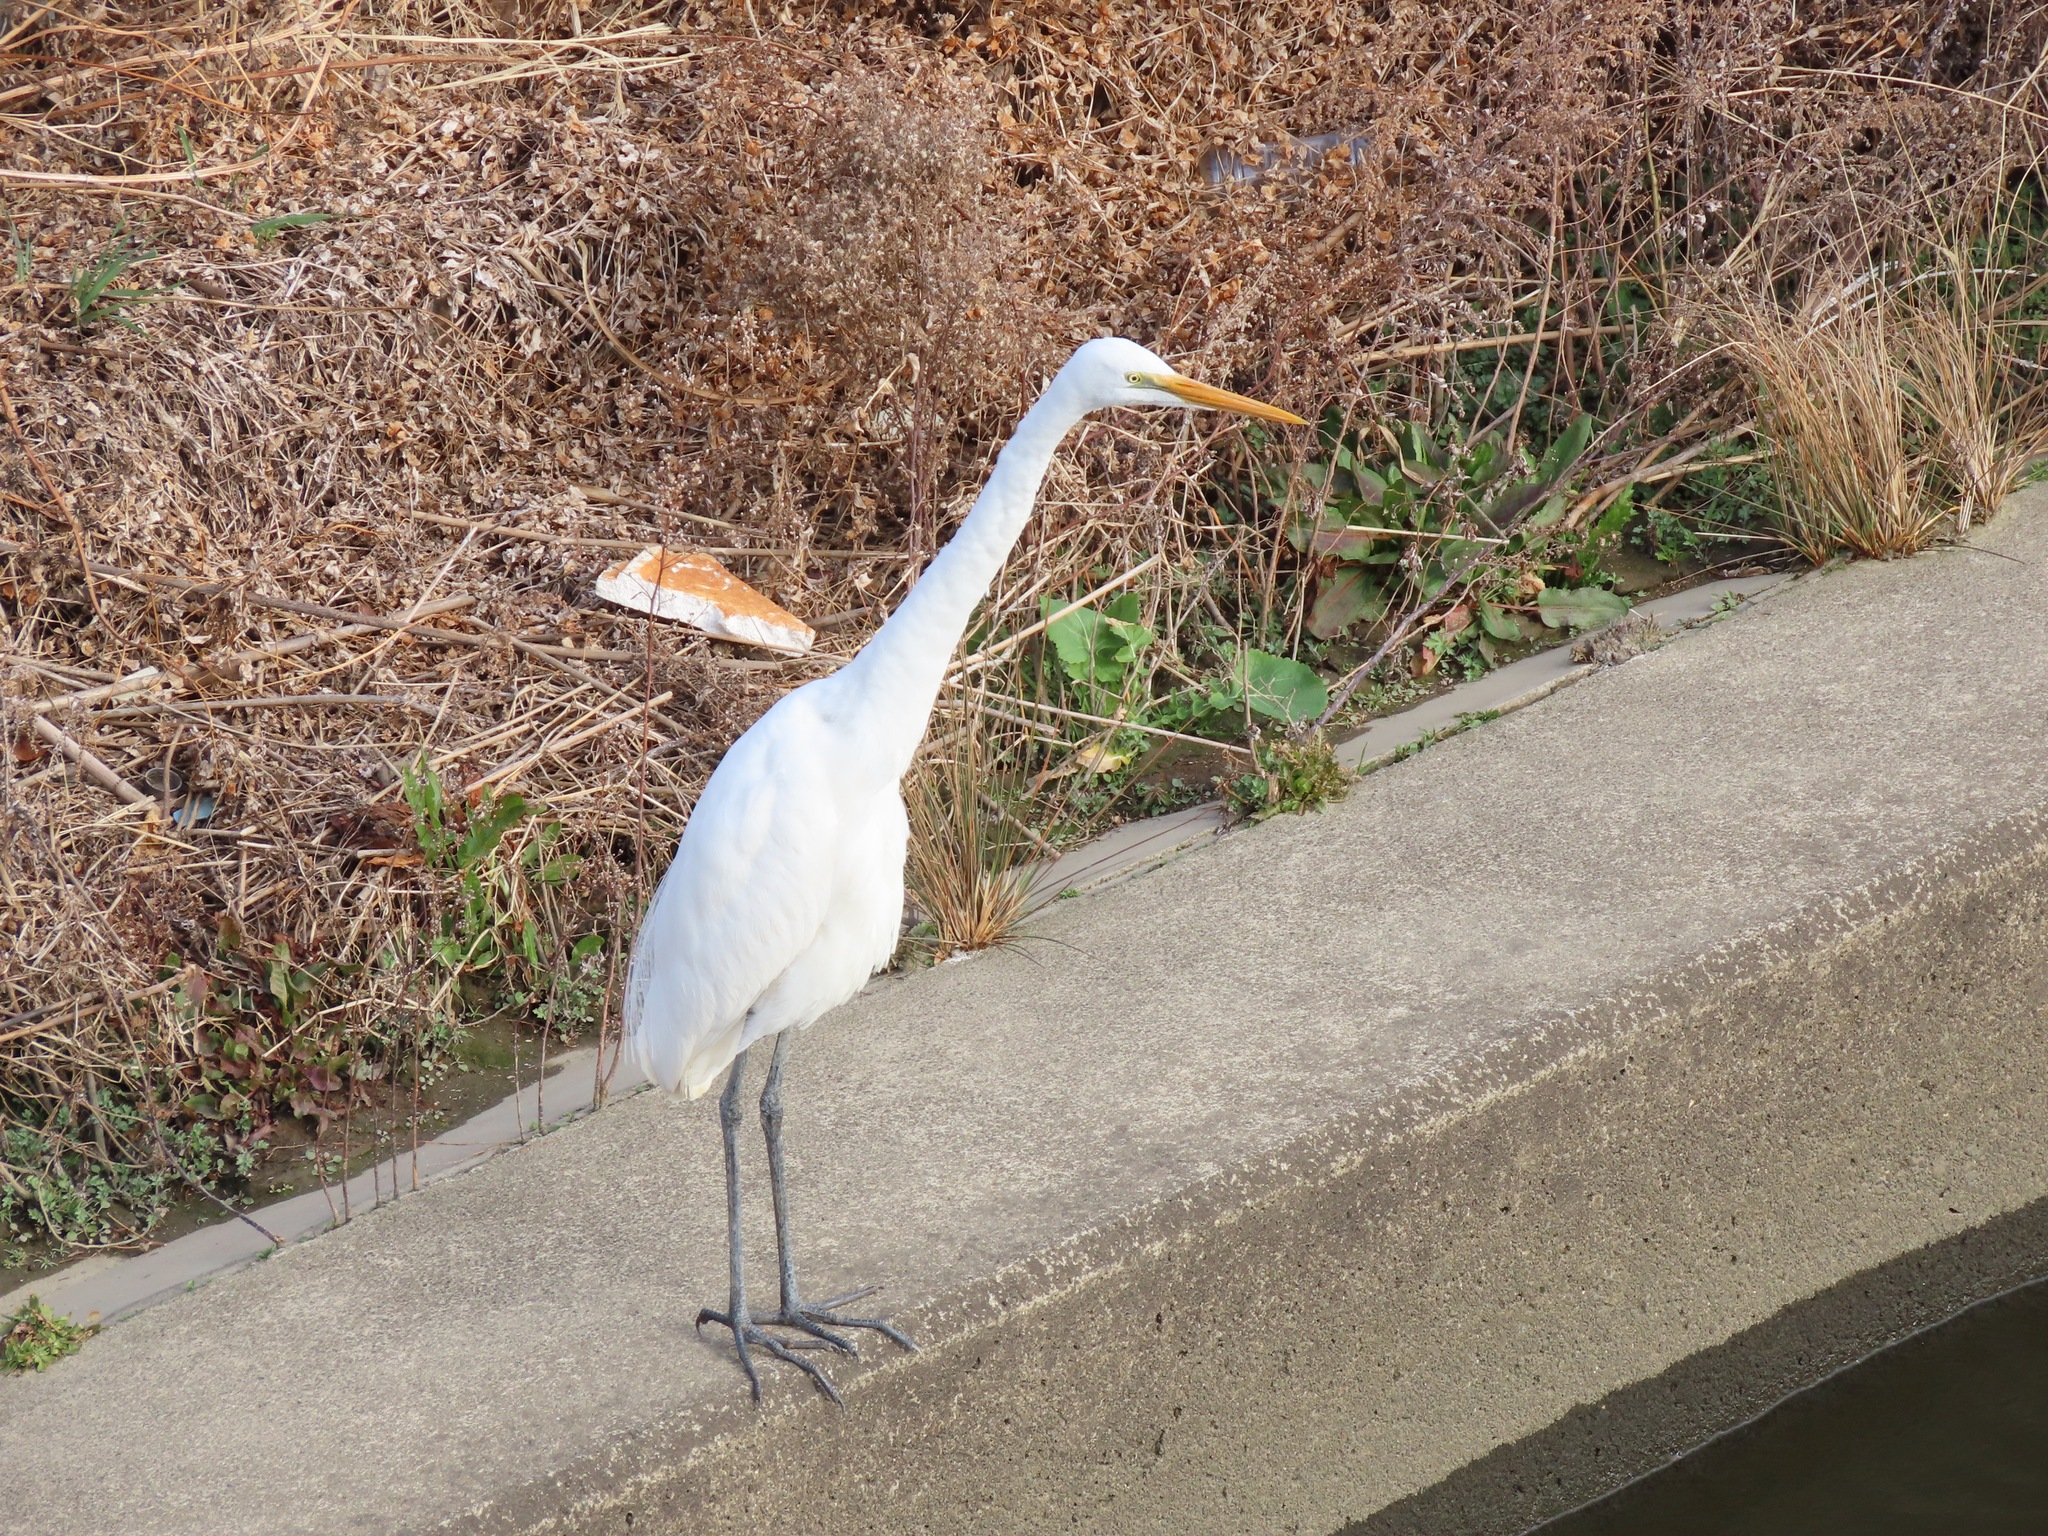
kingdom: Animalia
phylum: Chordata
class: Aves
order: Pelecaniformes
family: Ardeidae
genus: Ardea
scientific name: Ardea alba
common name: Great egret
